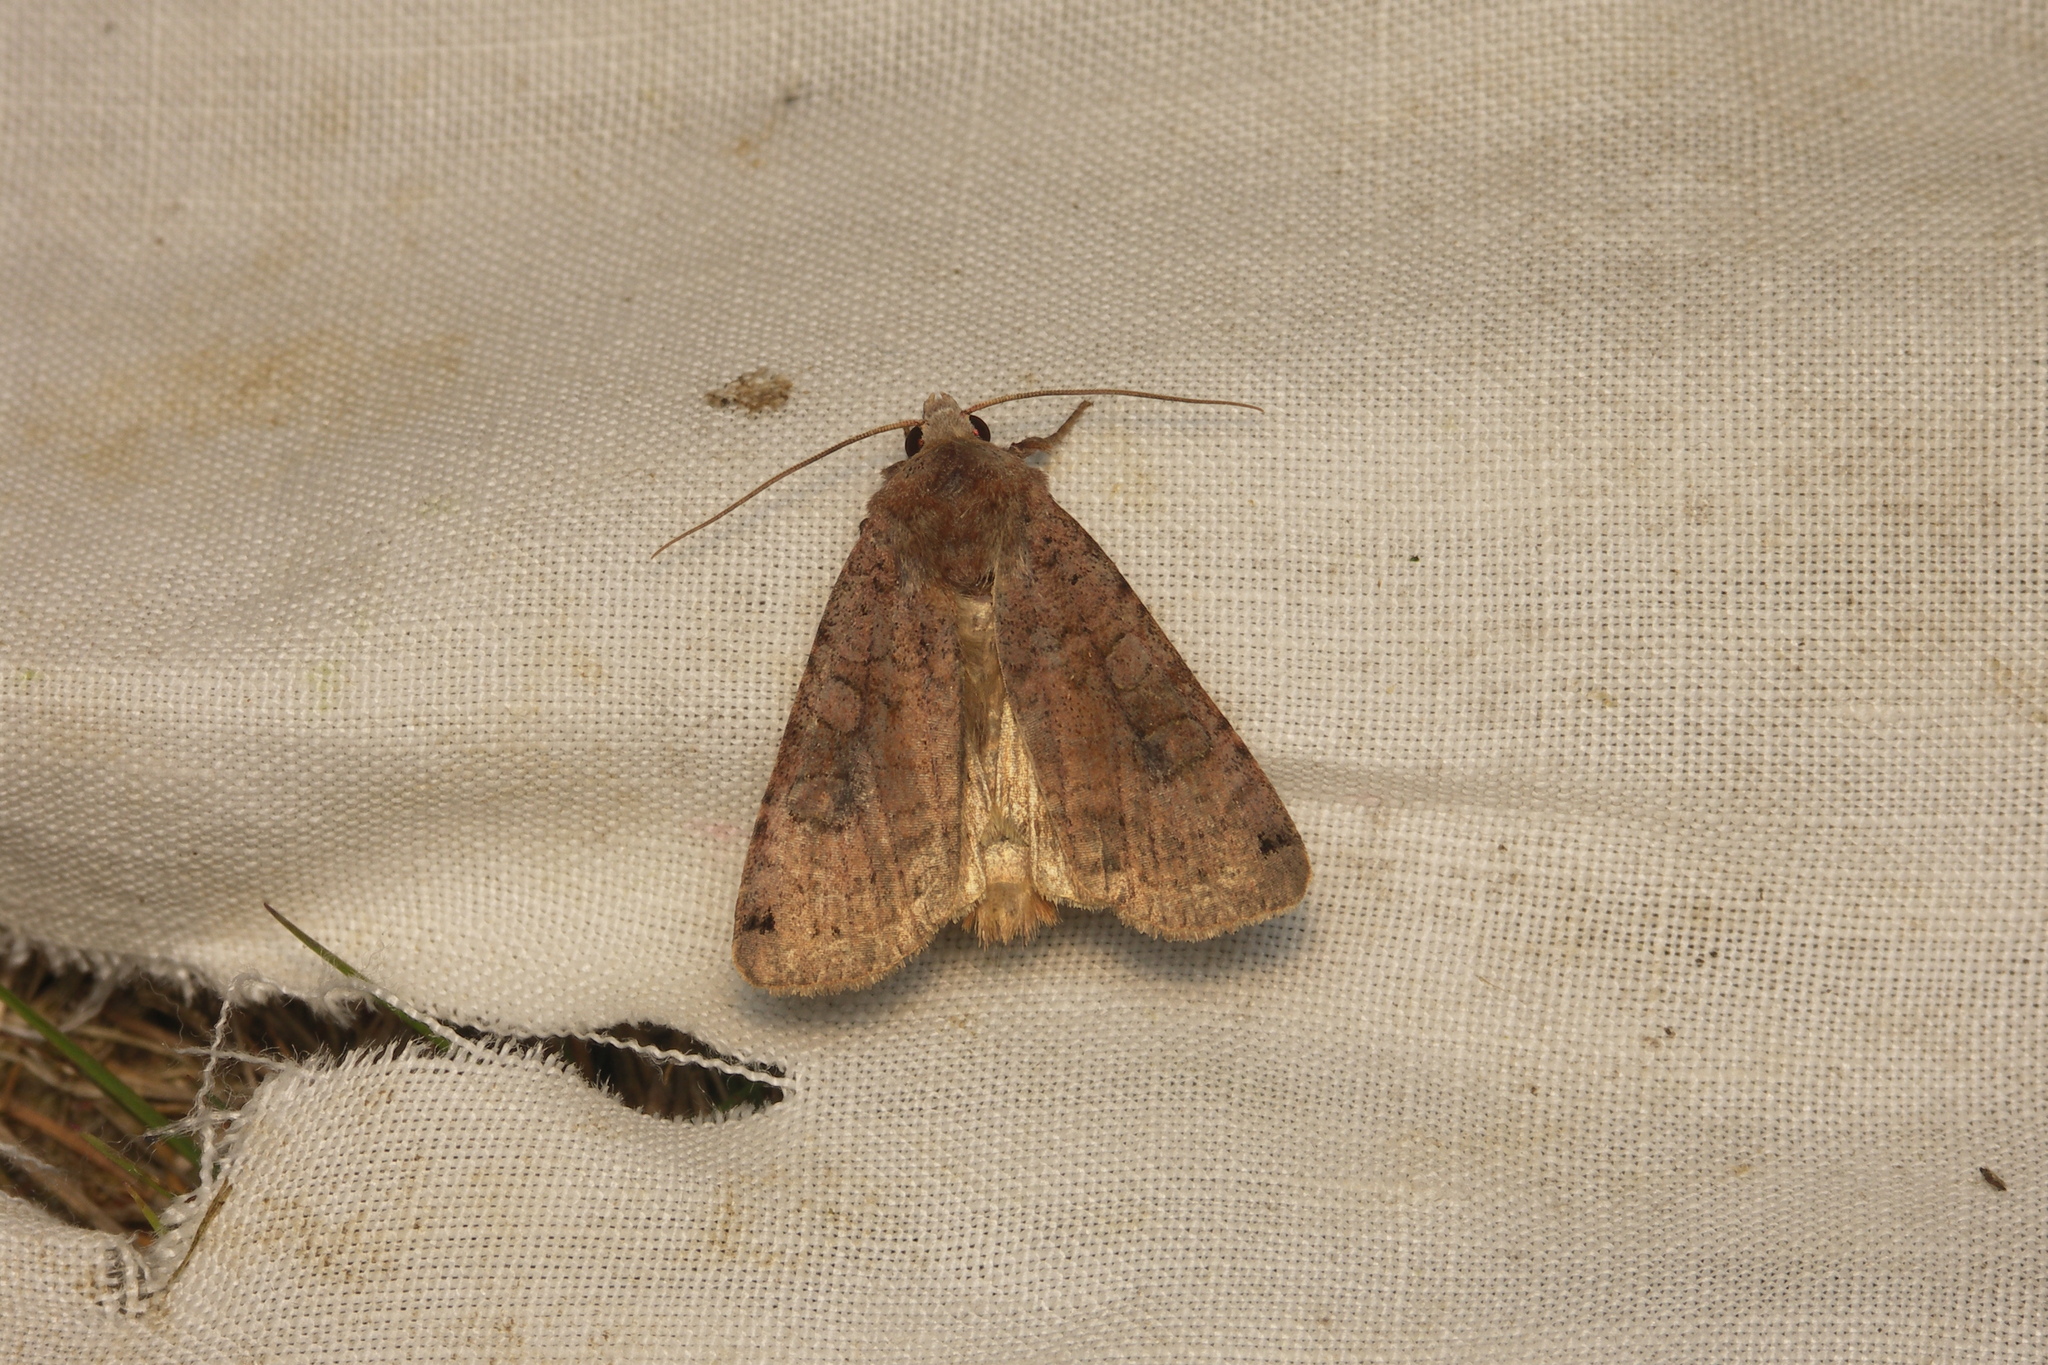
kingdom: Animalia
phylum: Arthropoda
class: Insecta
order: Lepidoptera
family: Noctuidae
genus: Xestia
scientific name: Xestia baja
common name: Dotted clay
